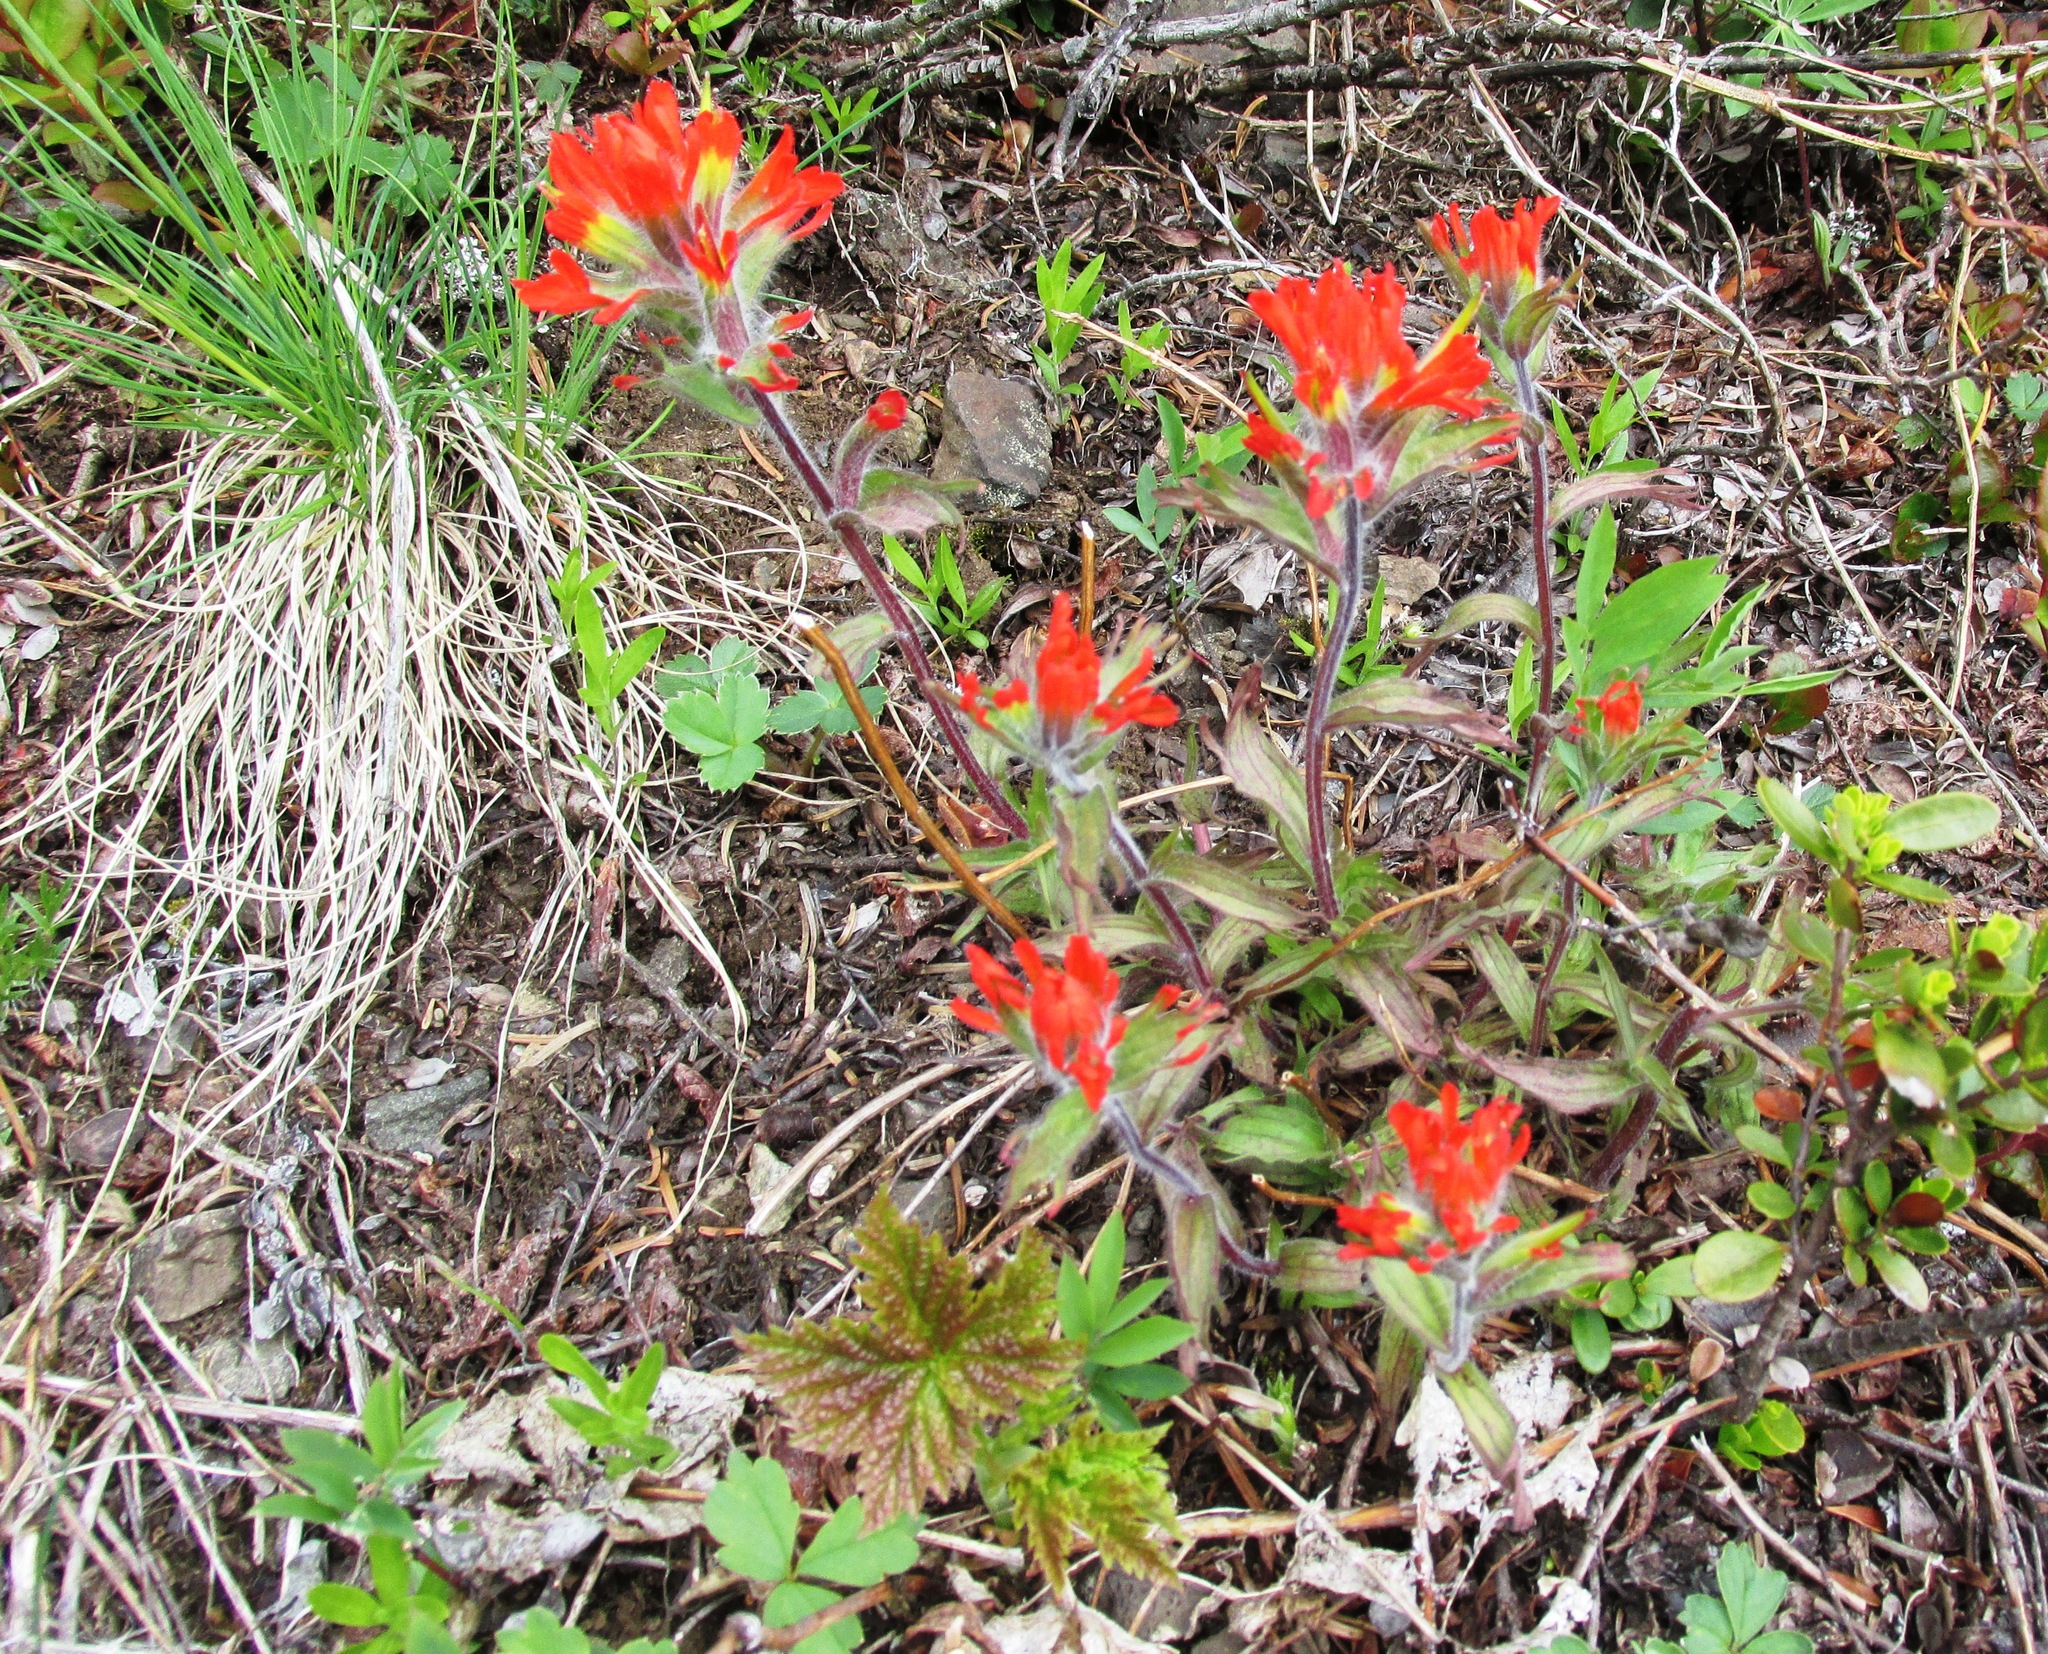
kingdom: Plantae
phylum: Tracheophyta
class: Magnoliopsida
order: Lamiales
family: Orobanchaceae
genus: Castilleja
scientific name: Castilleja hispida
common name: Bristly paintbrush
